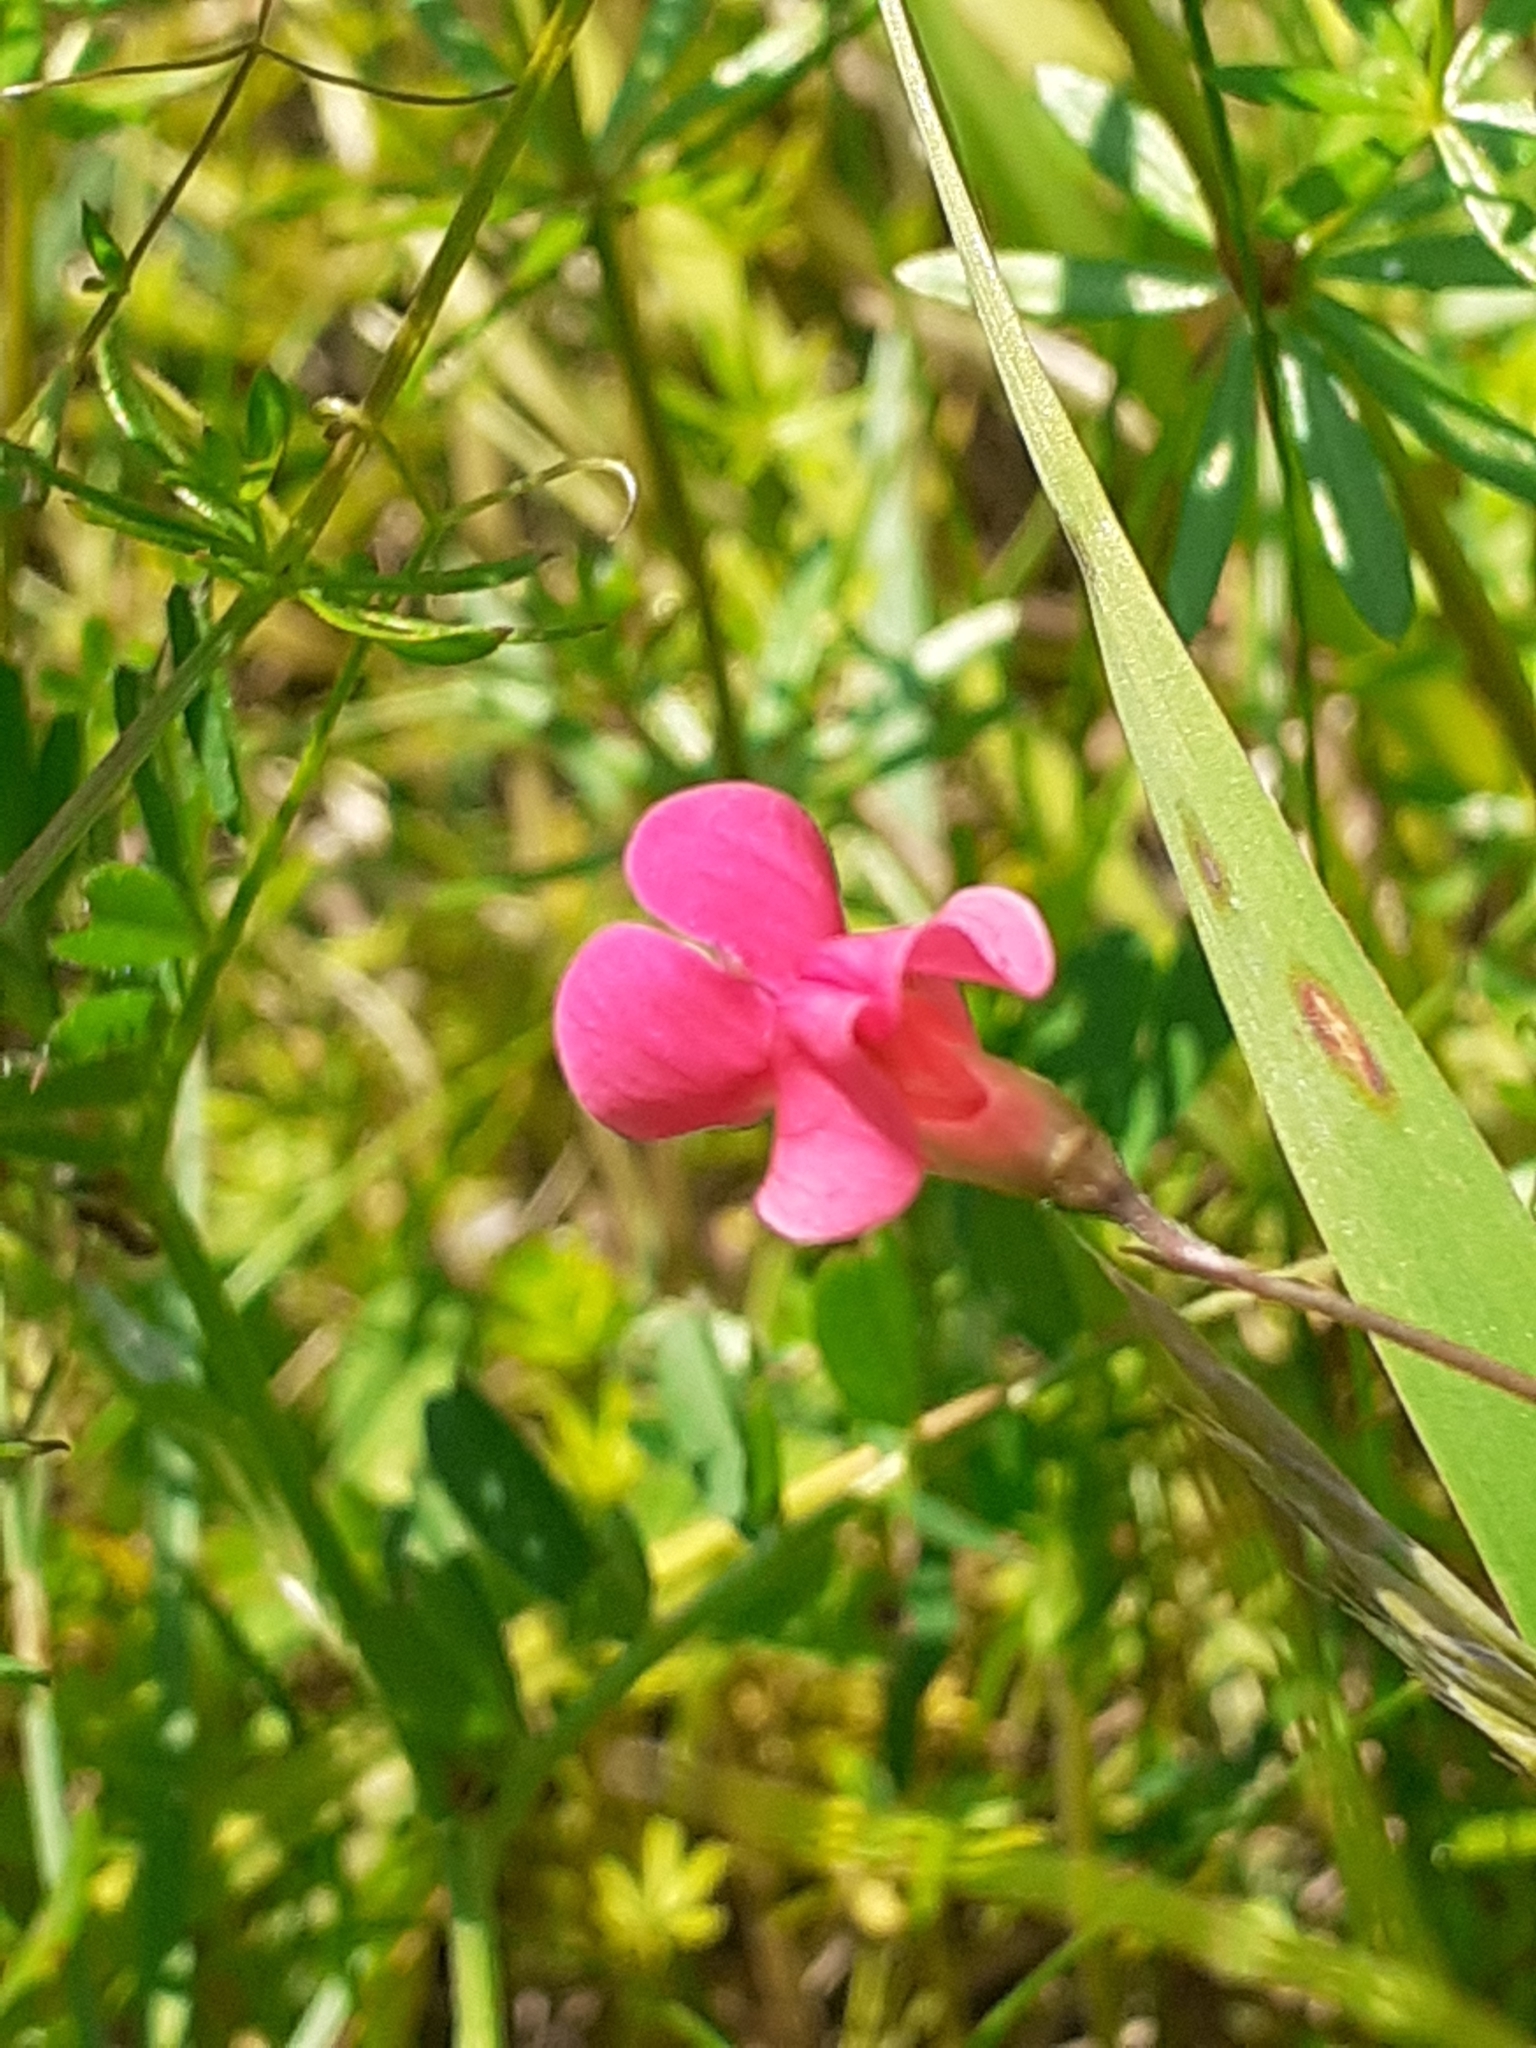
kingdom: Plantae
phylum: Tracheophyta
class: Magnoliopsida
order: Fabales
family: Fabaceae
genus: Lathyrus
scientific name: Lathyrus nissolia
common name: Grass vetchling
